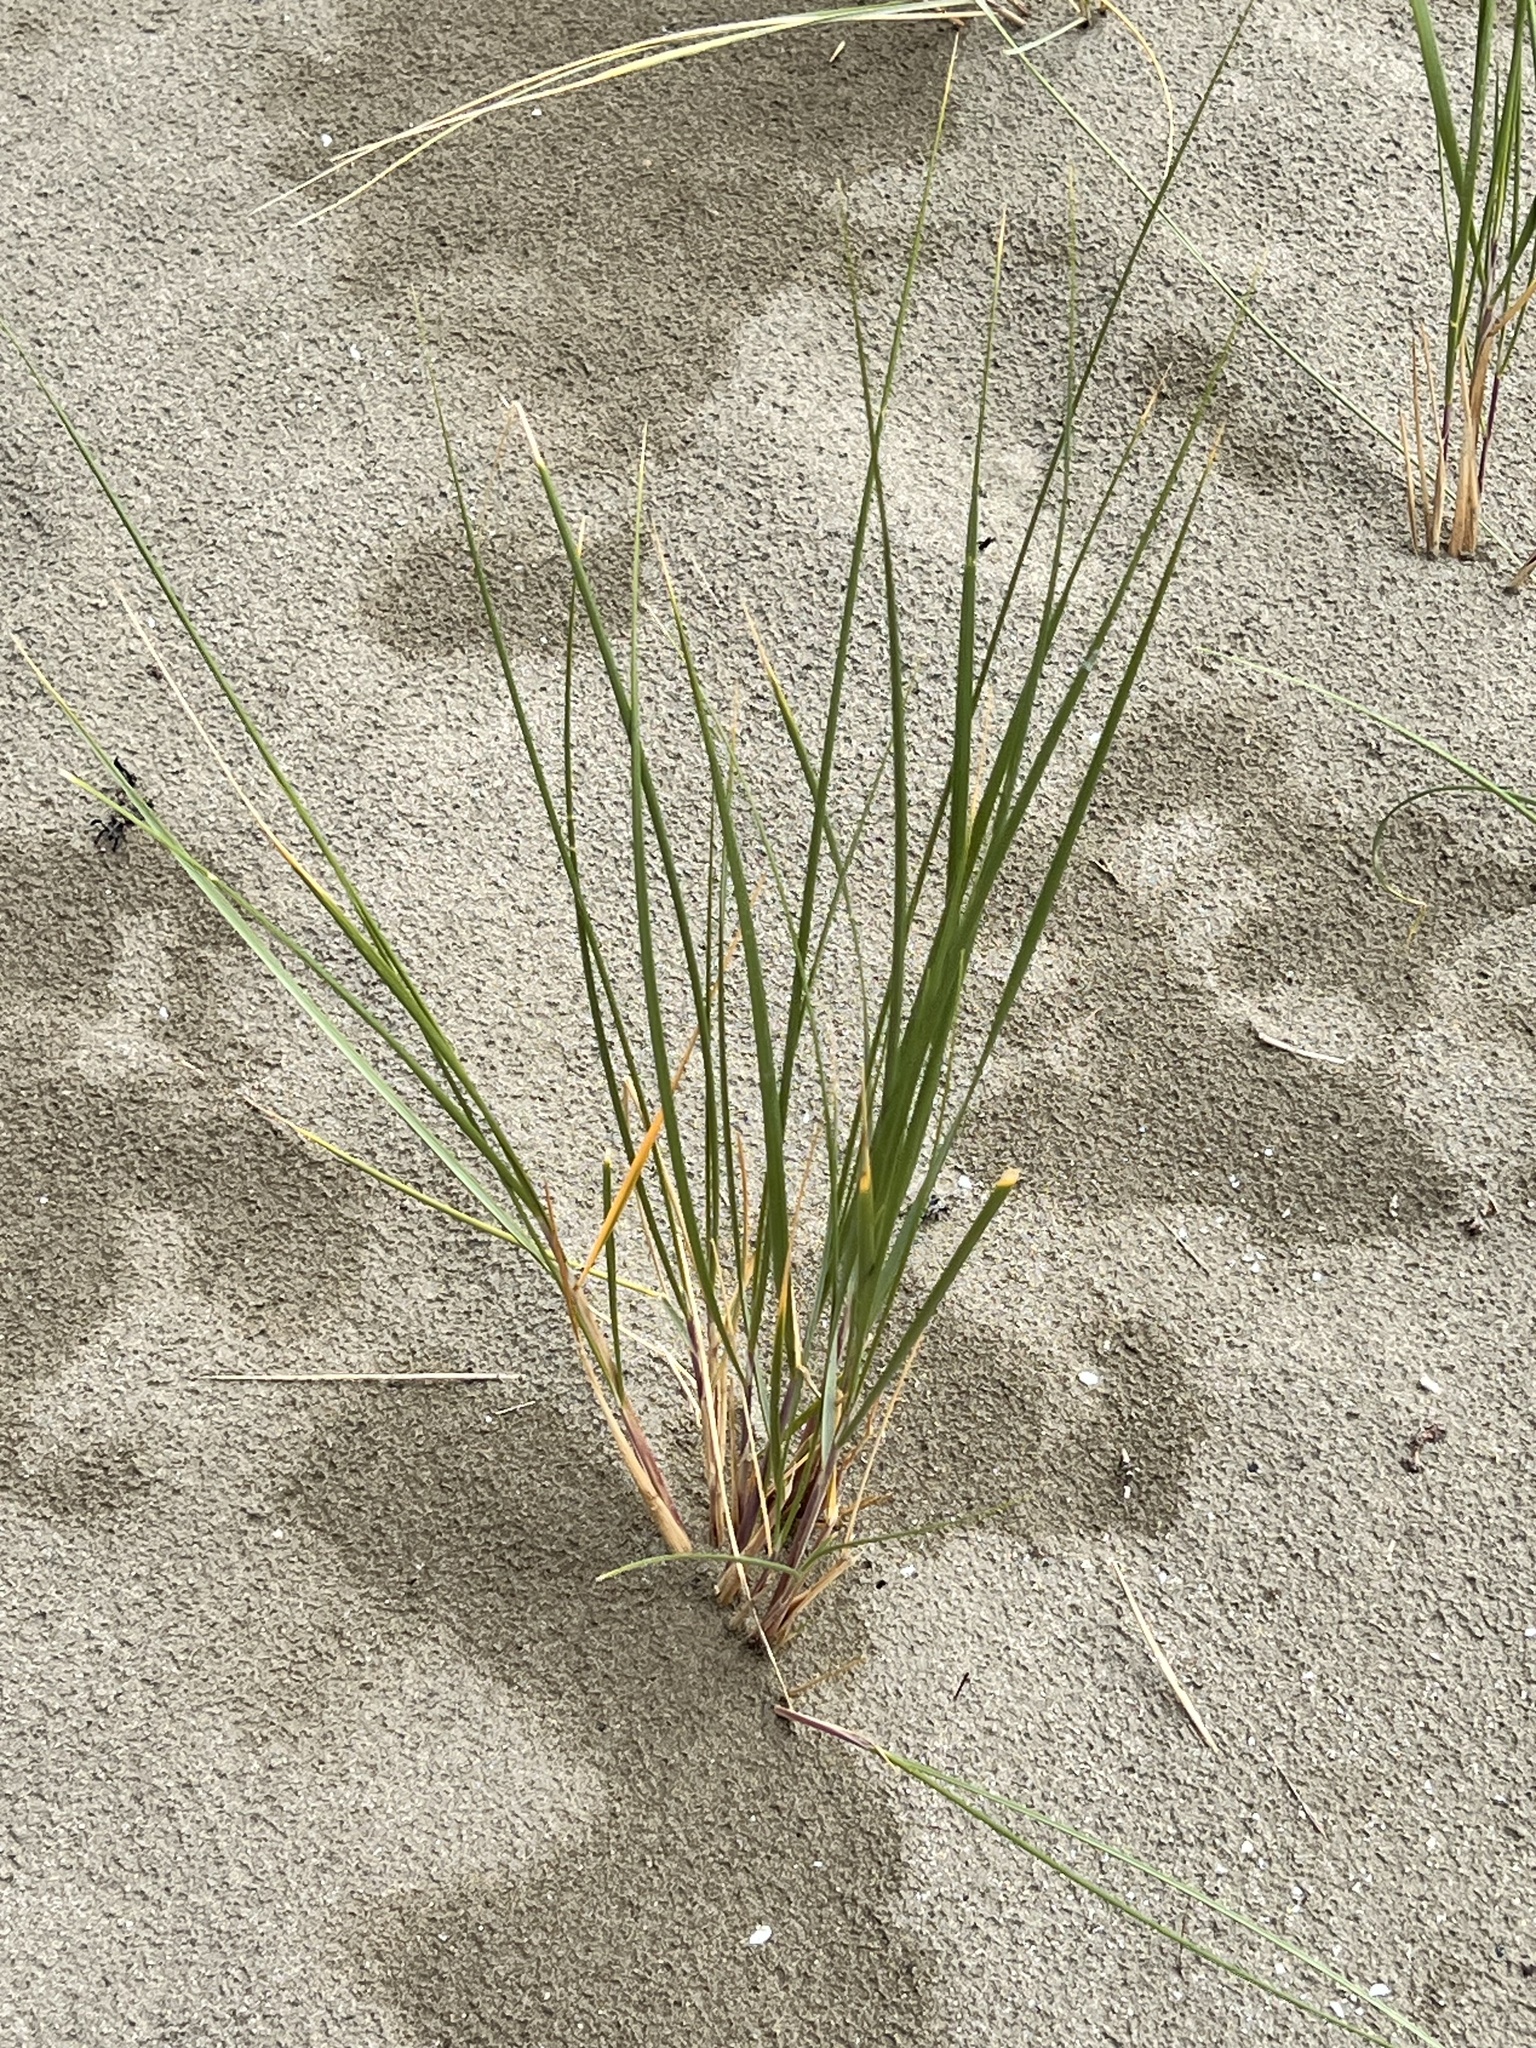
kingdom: Plantae
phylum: Tracheophyta
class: Liliopsida
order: Poales
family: Poaceae
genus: Calamagrostis
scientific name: Calamagrostis arenaria
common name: European beachgrass
